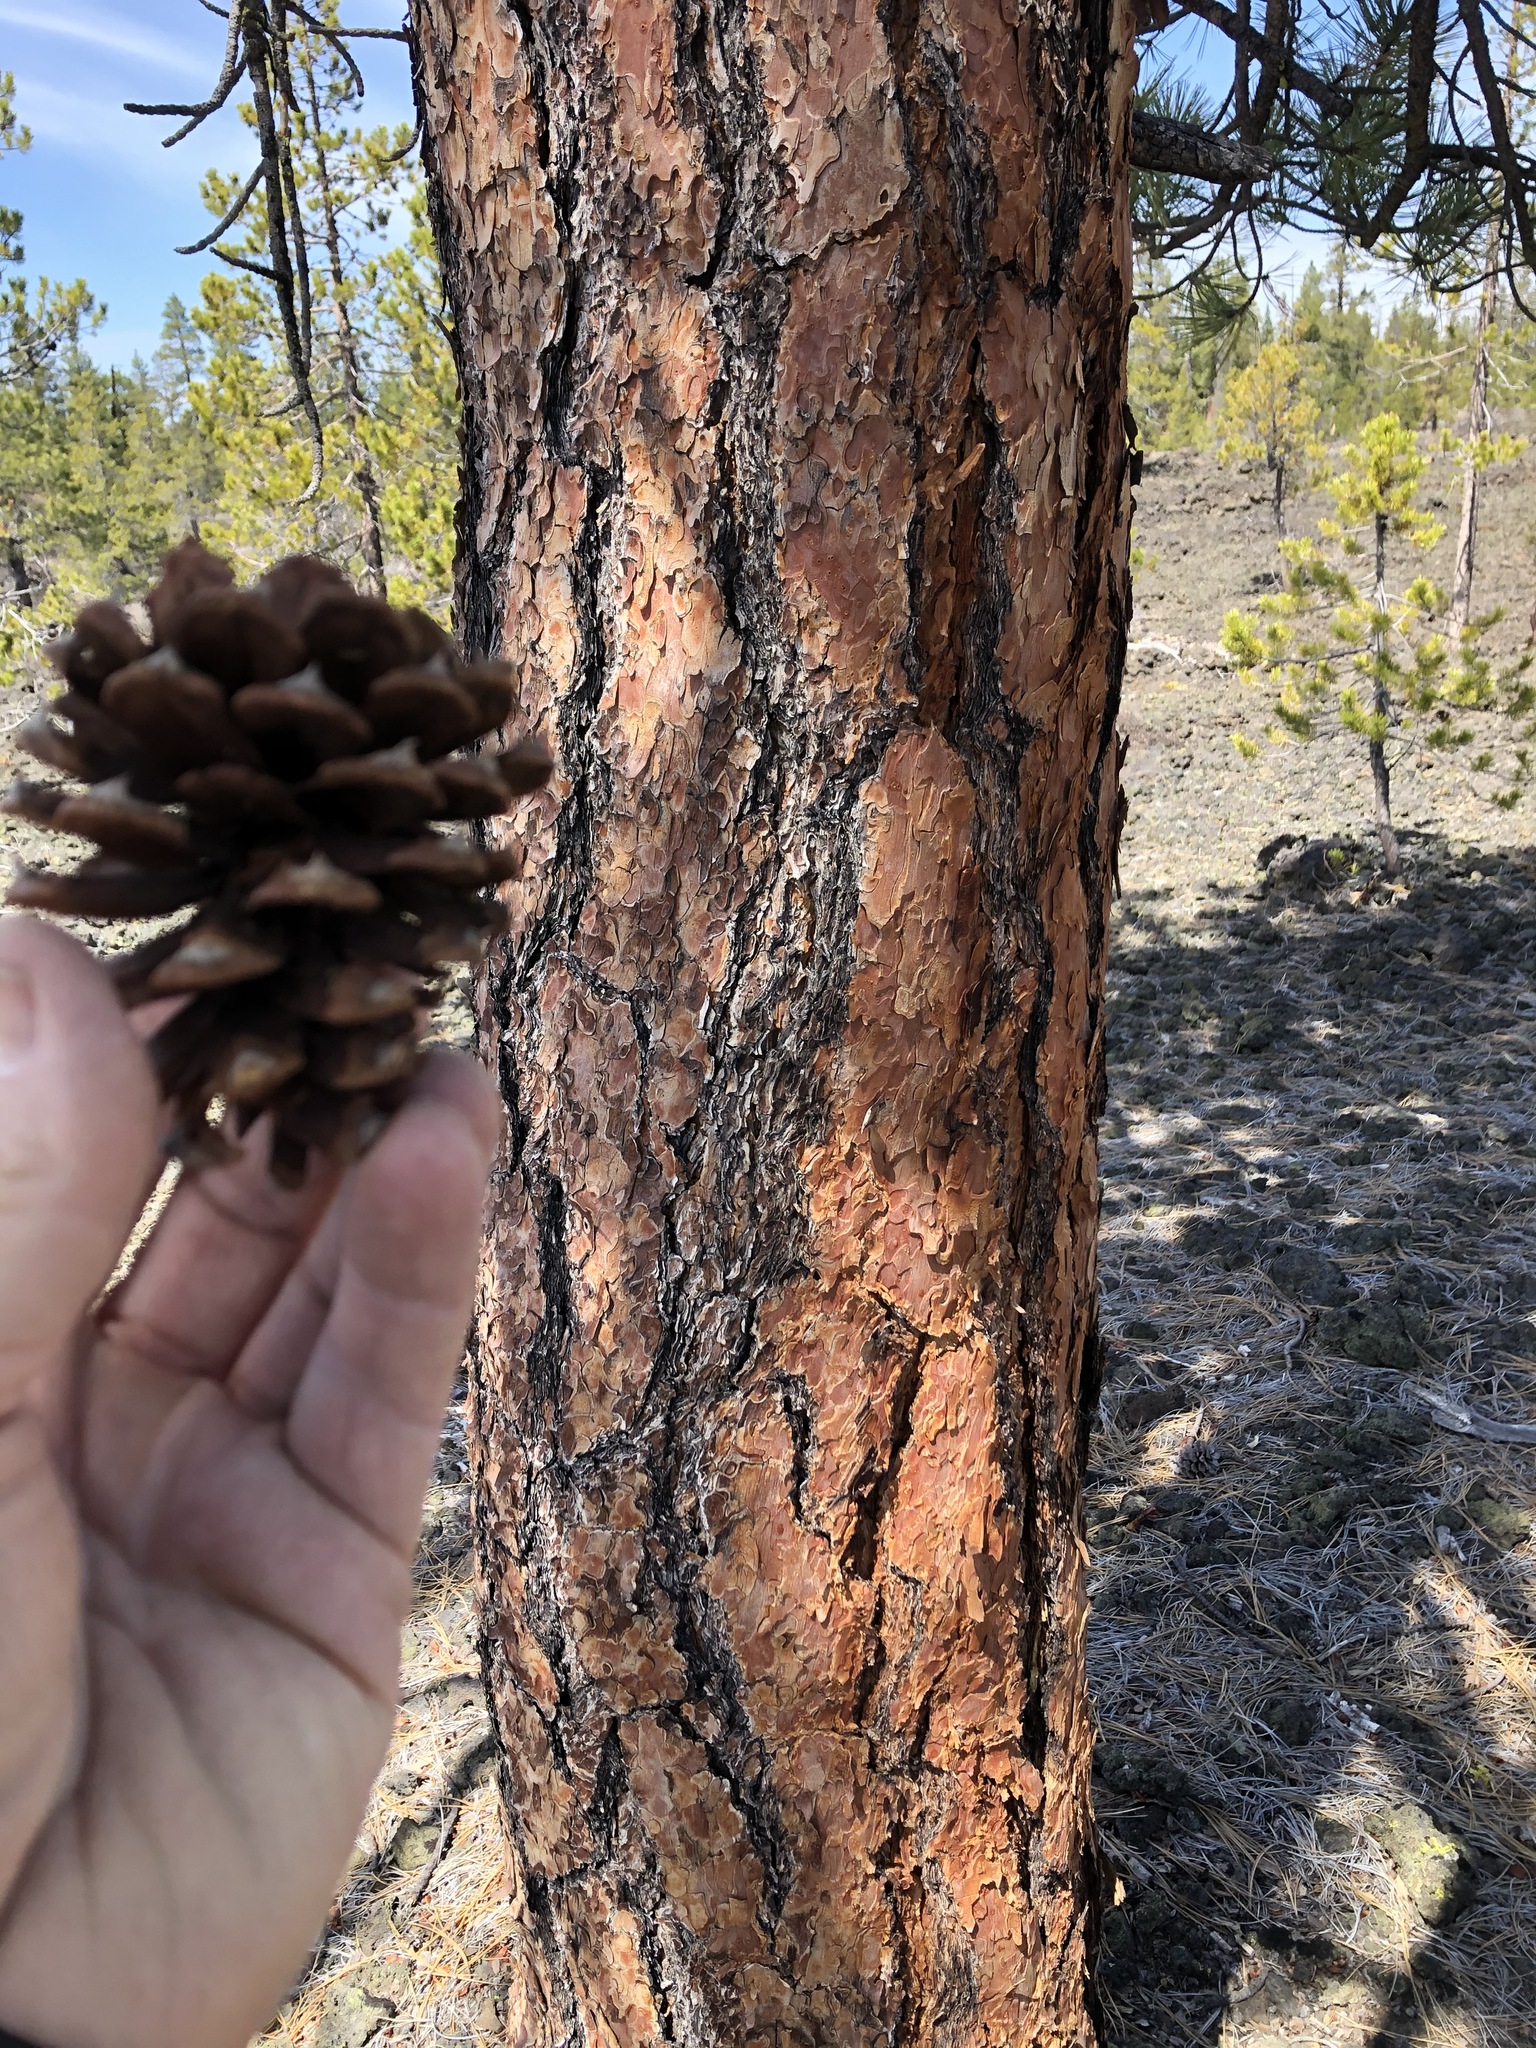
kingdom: Plantae
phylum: Tracheophyta
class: Pinopsida
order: Pinales
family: Pinaceae
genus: Pinus
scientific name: Pinus ponderosa
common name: Western yellow-pine
